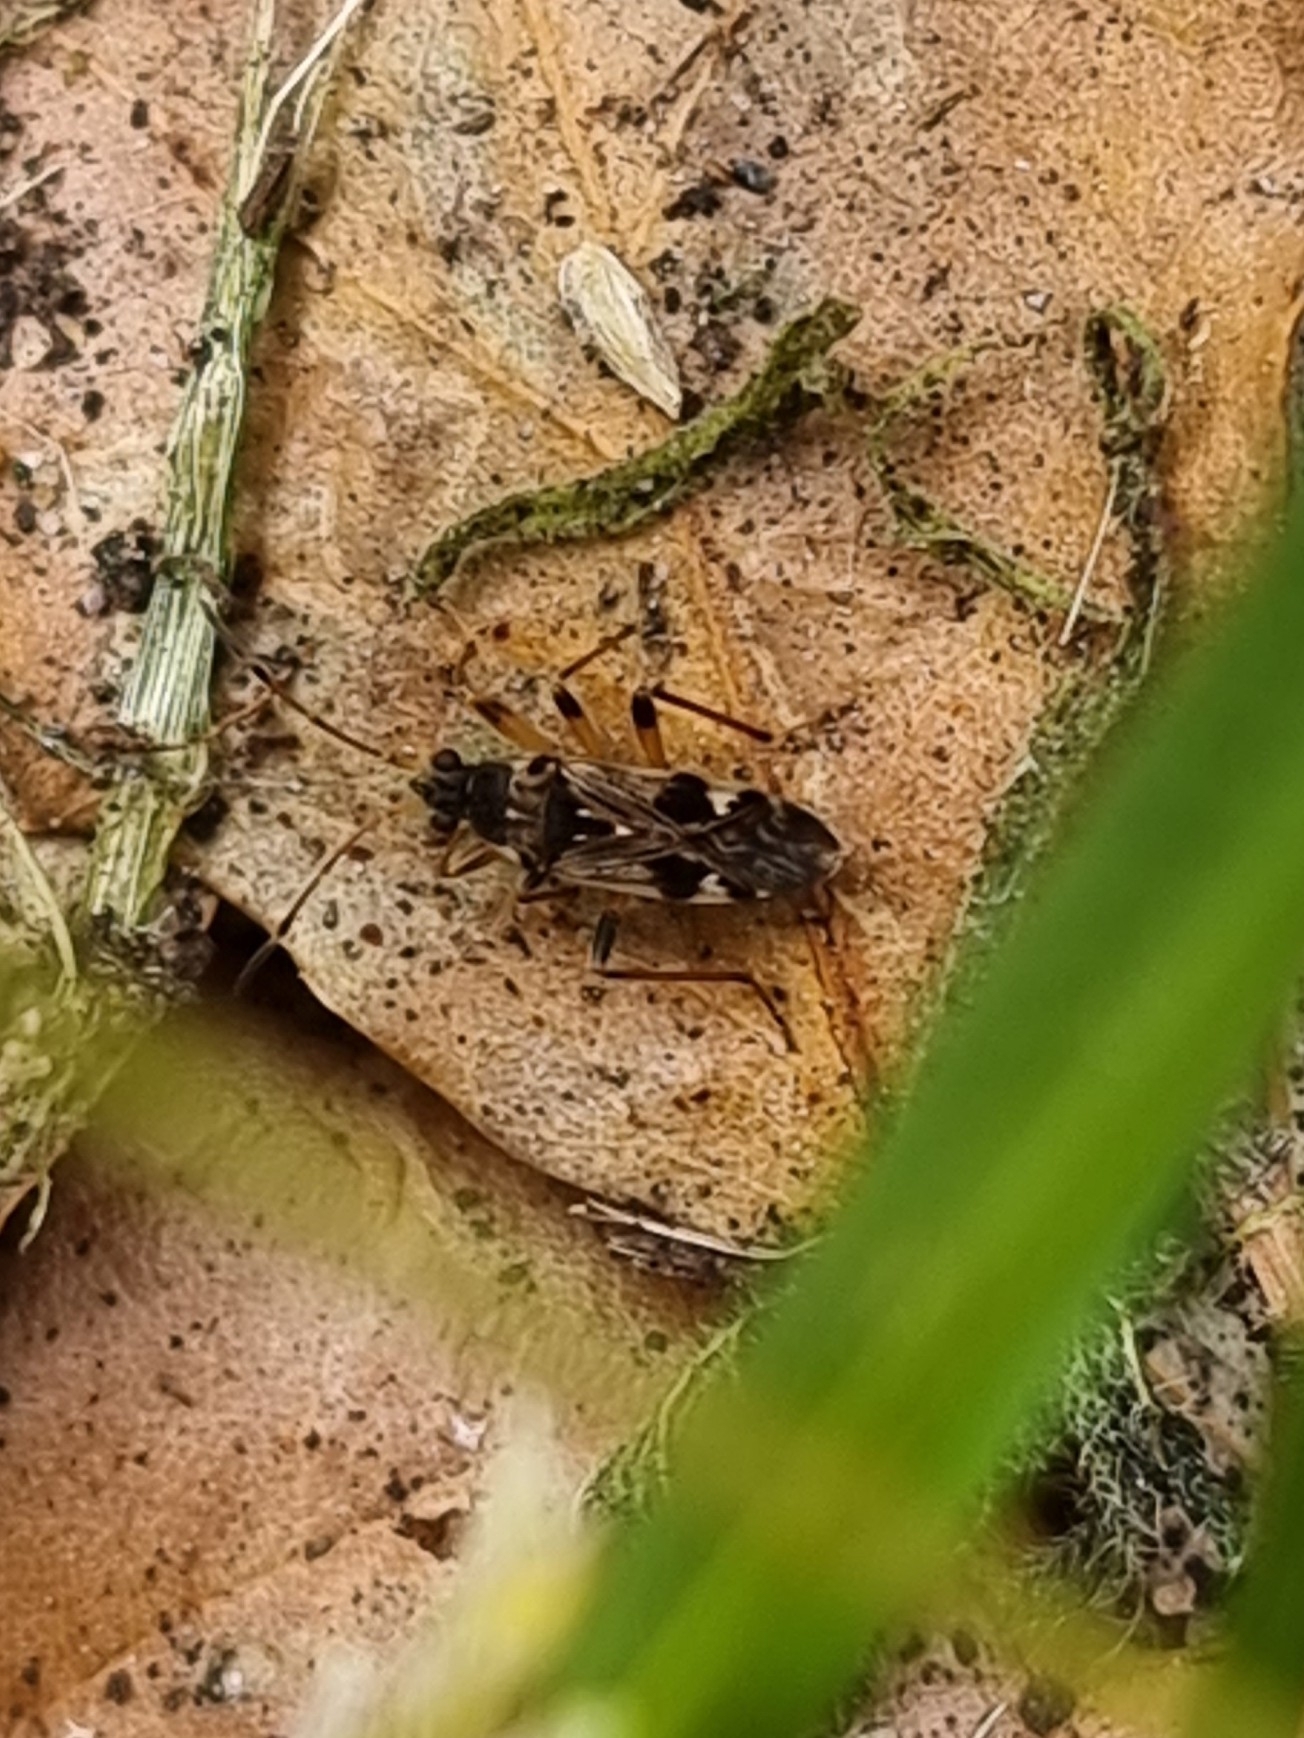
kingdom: Animalia
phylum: Arthropoda
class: Insecta
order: Hemiptera
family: Rhyparochromidae
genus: Beosus
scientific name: Beosus maritimus
